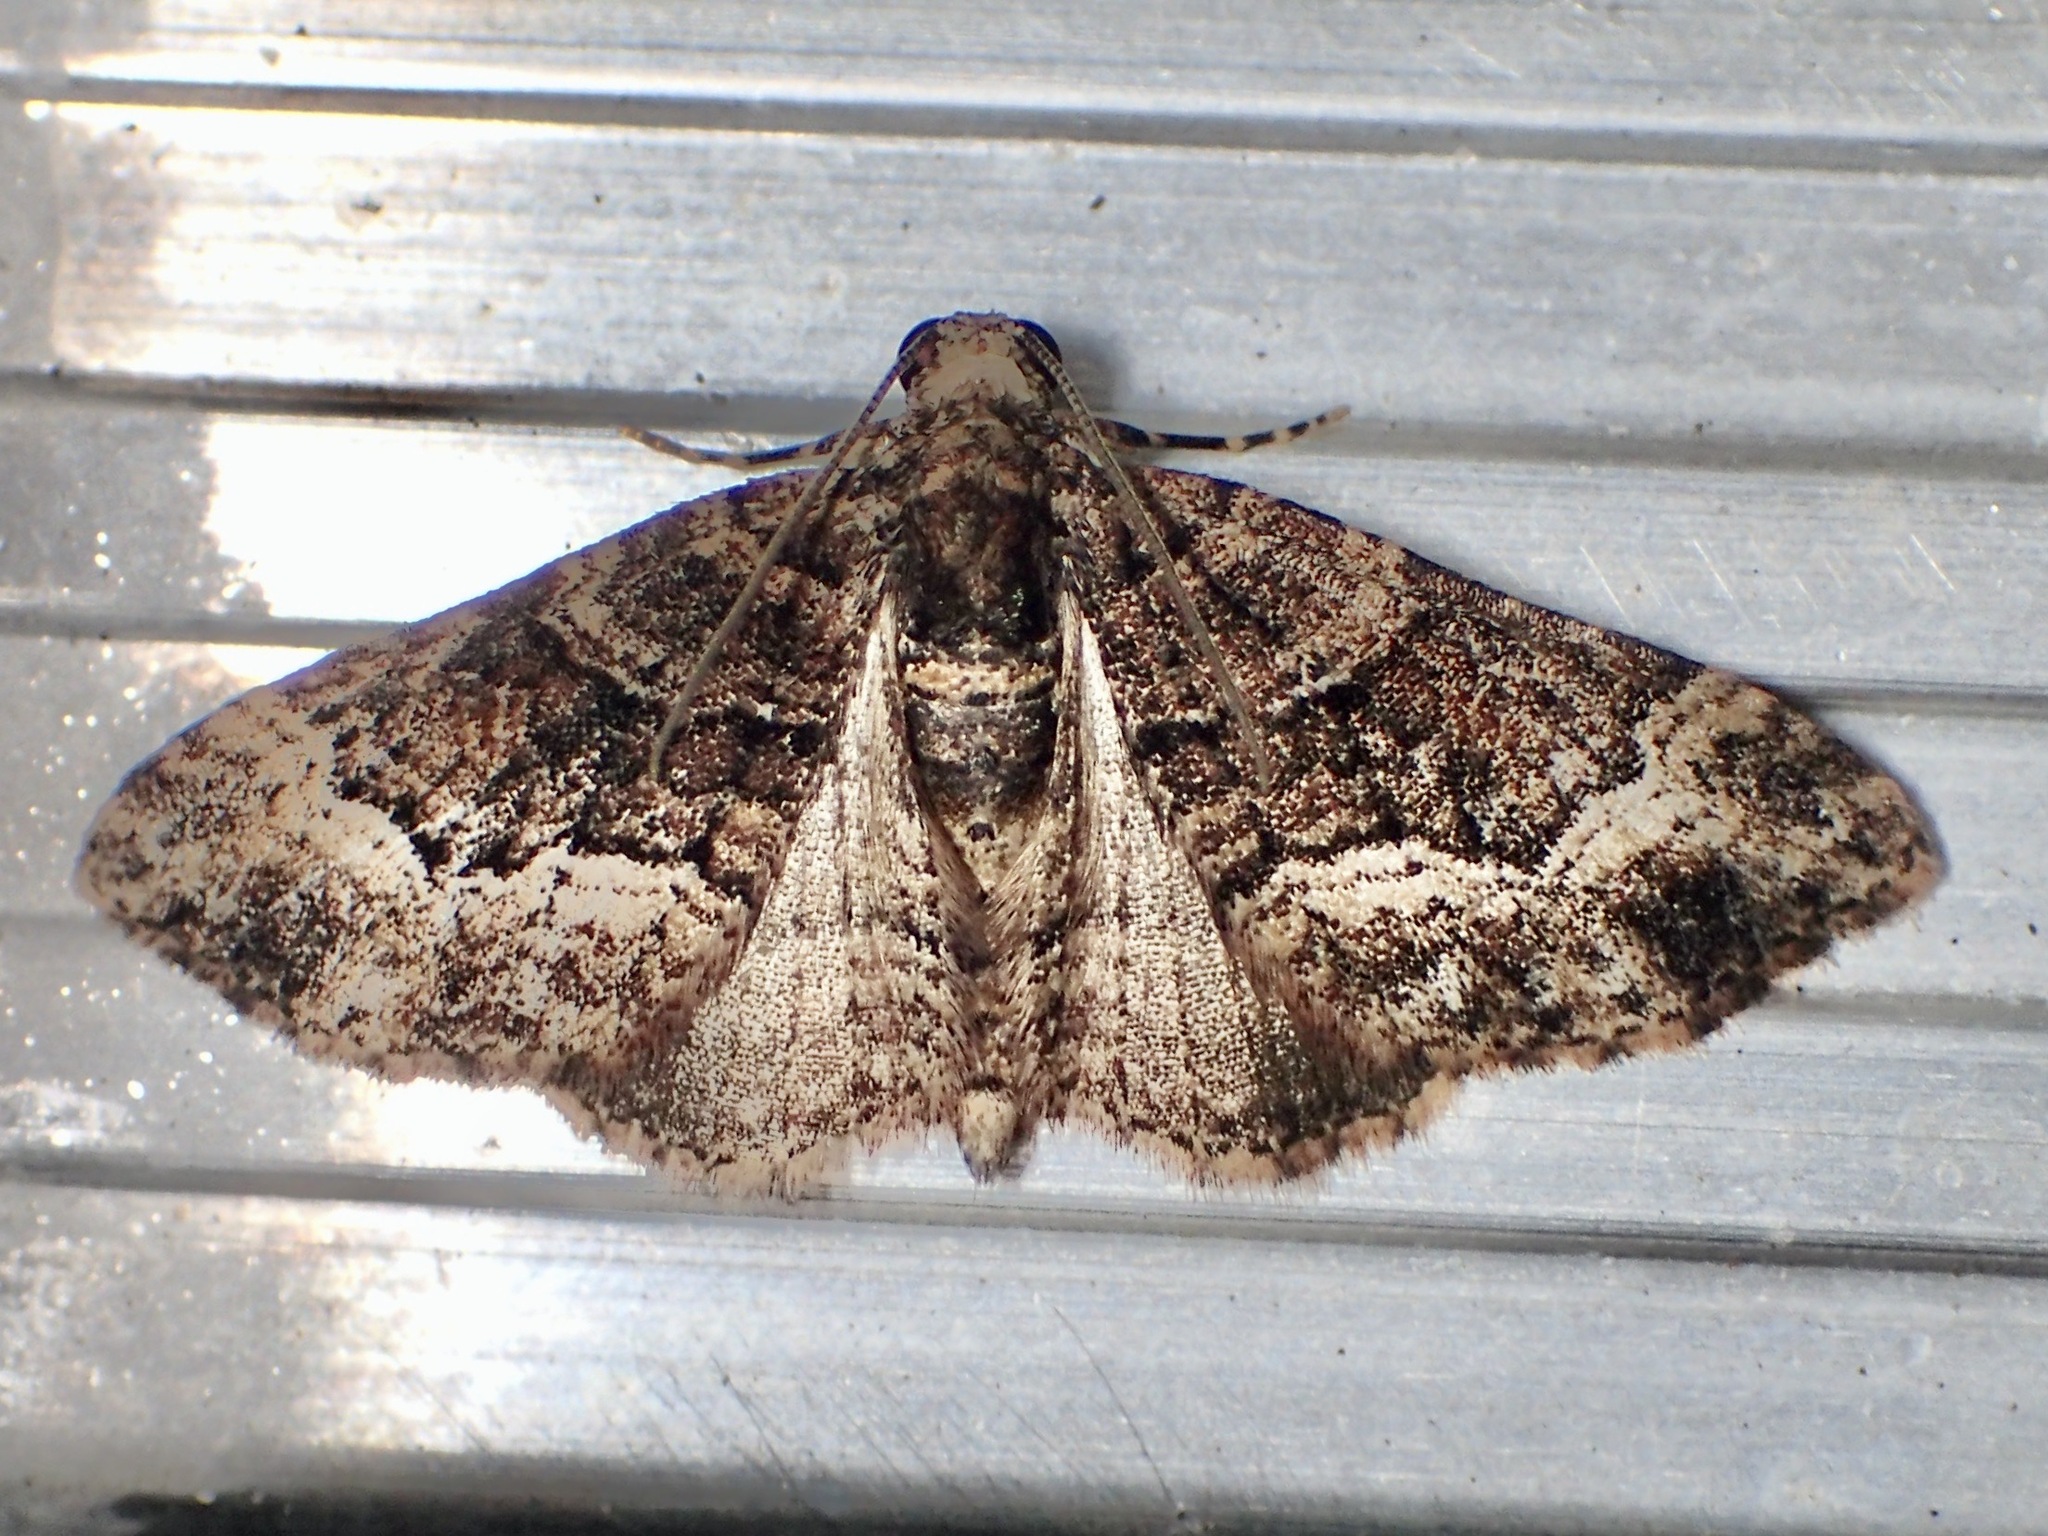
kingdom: Animalia
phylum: Arthropoda
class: Insecta
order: Lepidoptera
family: Geometridae
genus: Epyaxa
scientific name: Epyaxa sodaliata
